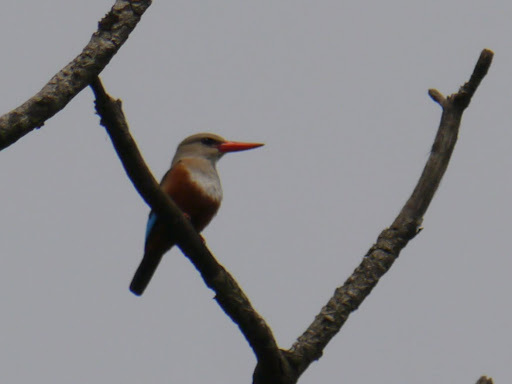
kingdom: Animalia
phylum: Chordata
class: Aves
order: Coraciiformes
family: Alcedinidae
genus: Halcyon
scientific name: Halcyon leucocephala
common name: Grey-headed kingfisher
